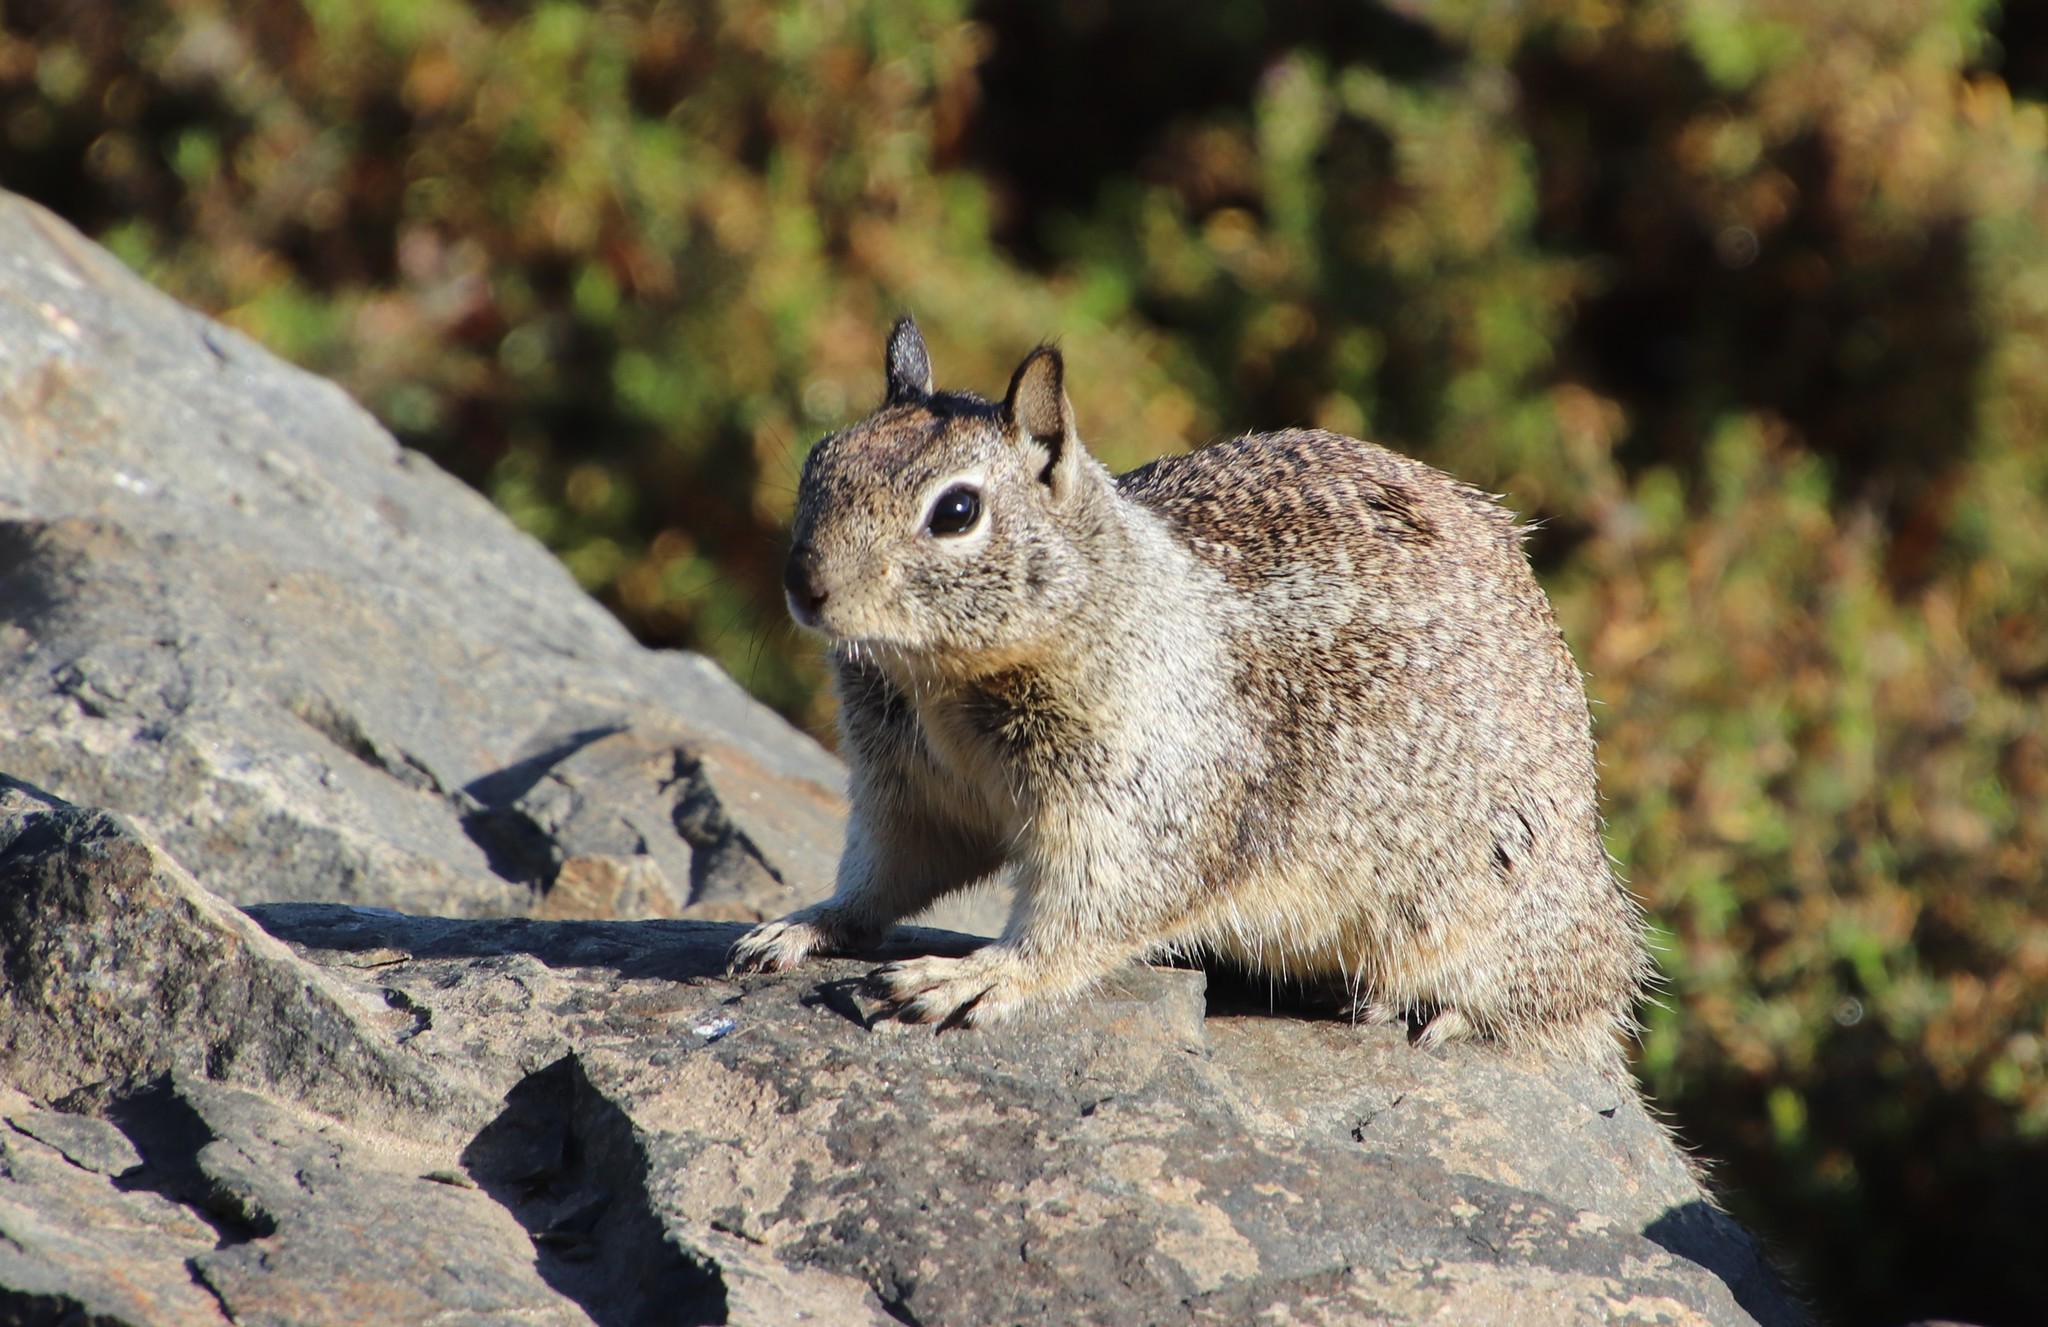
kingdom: Animalia
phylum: Chordata
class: Mammalia
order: Rodentia
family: Sciuridae
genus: Otospermophilus
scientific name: Otospermophilus beecheyi
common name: California ground squirrel
